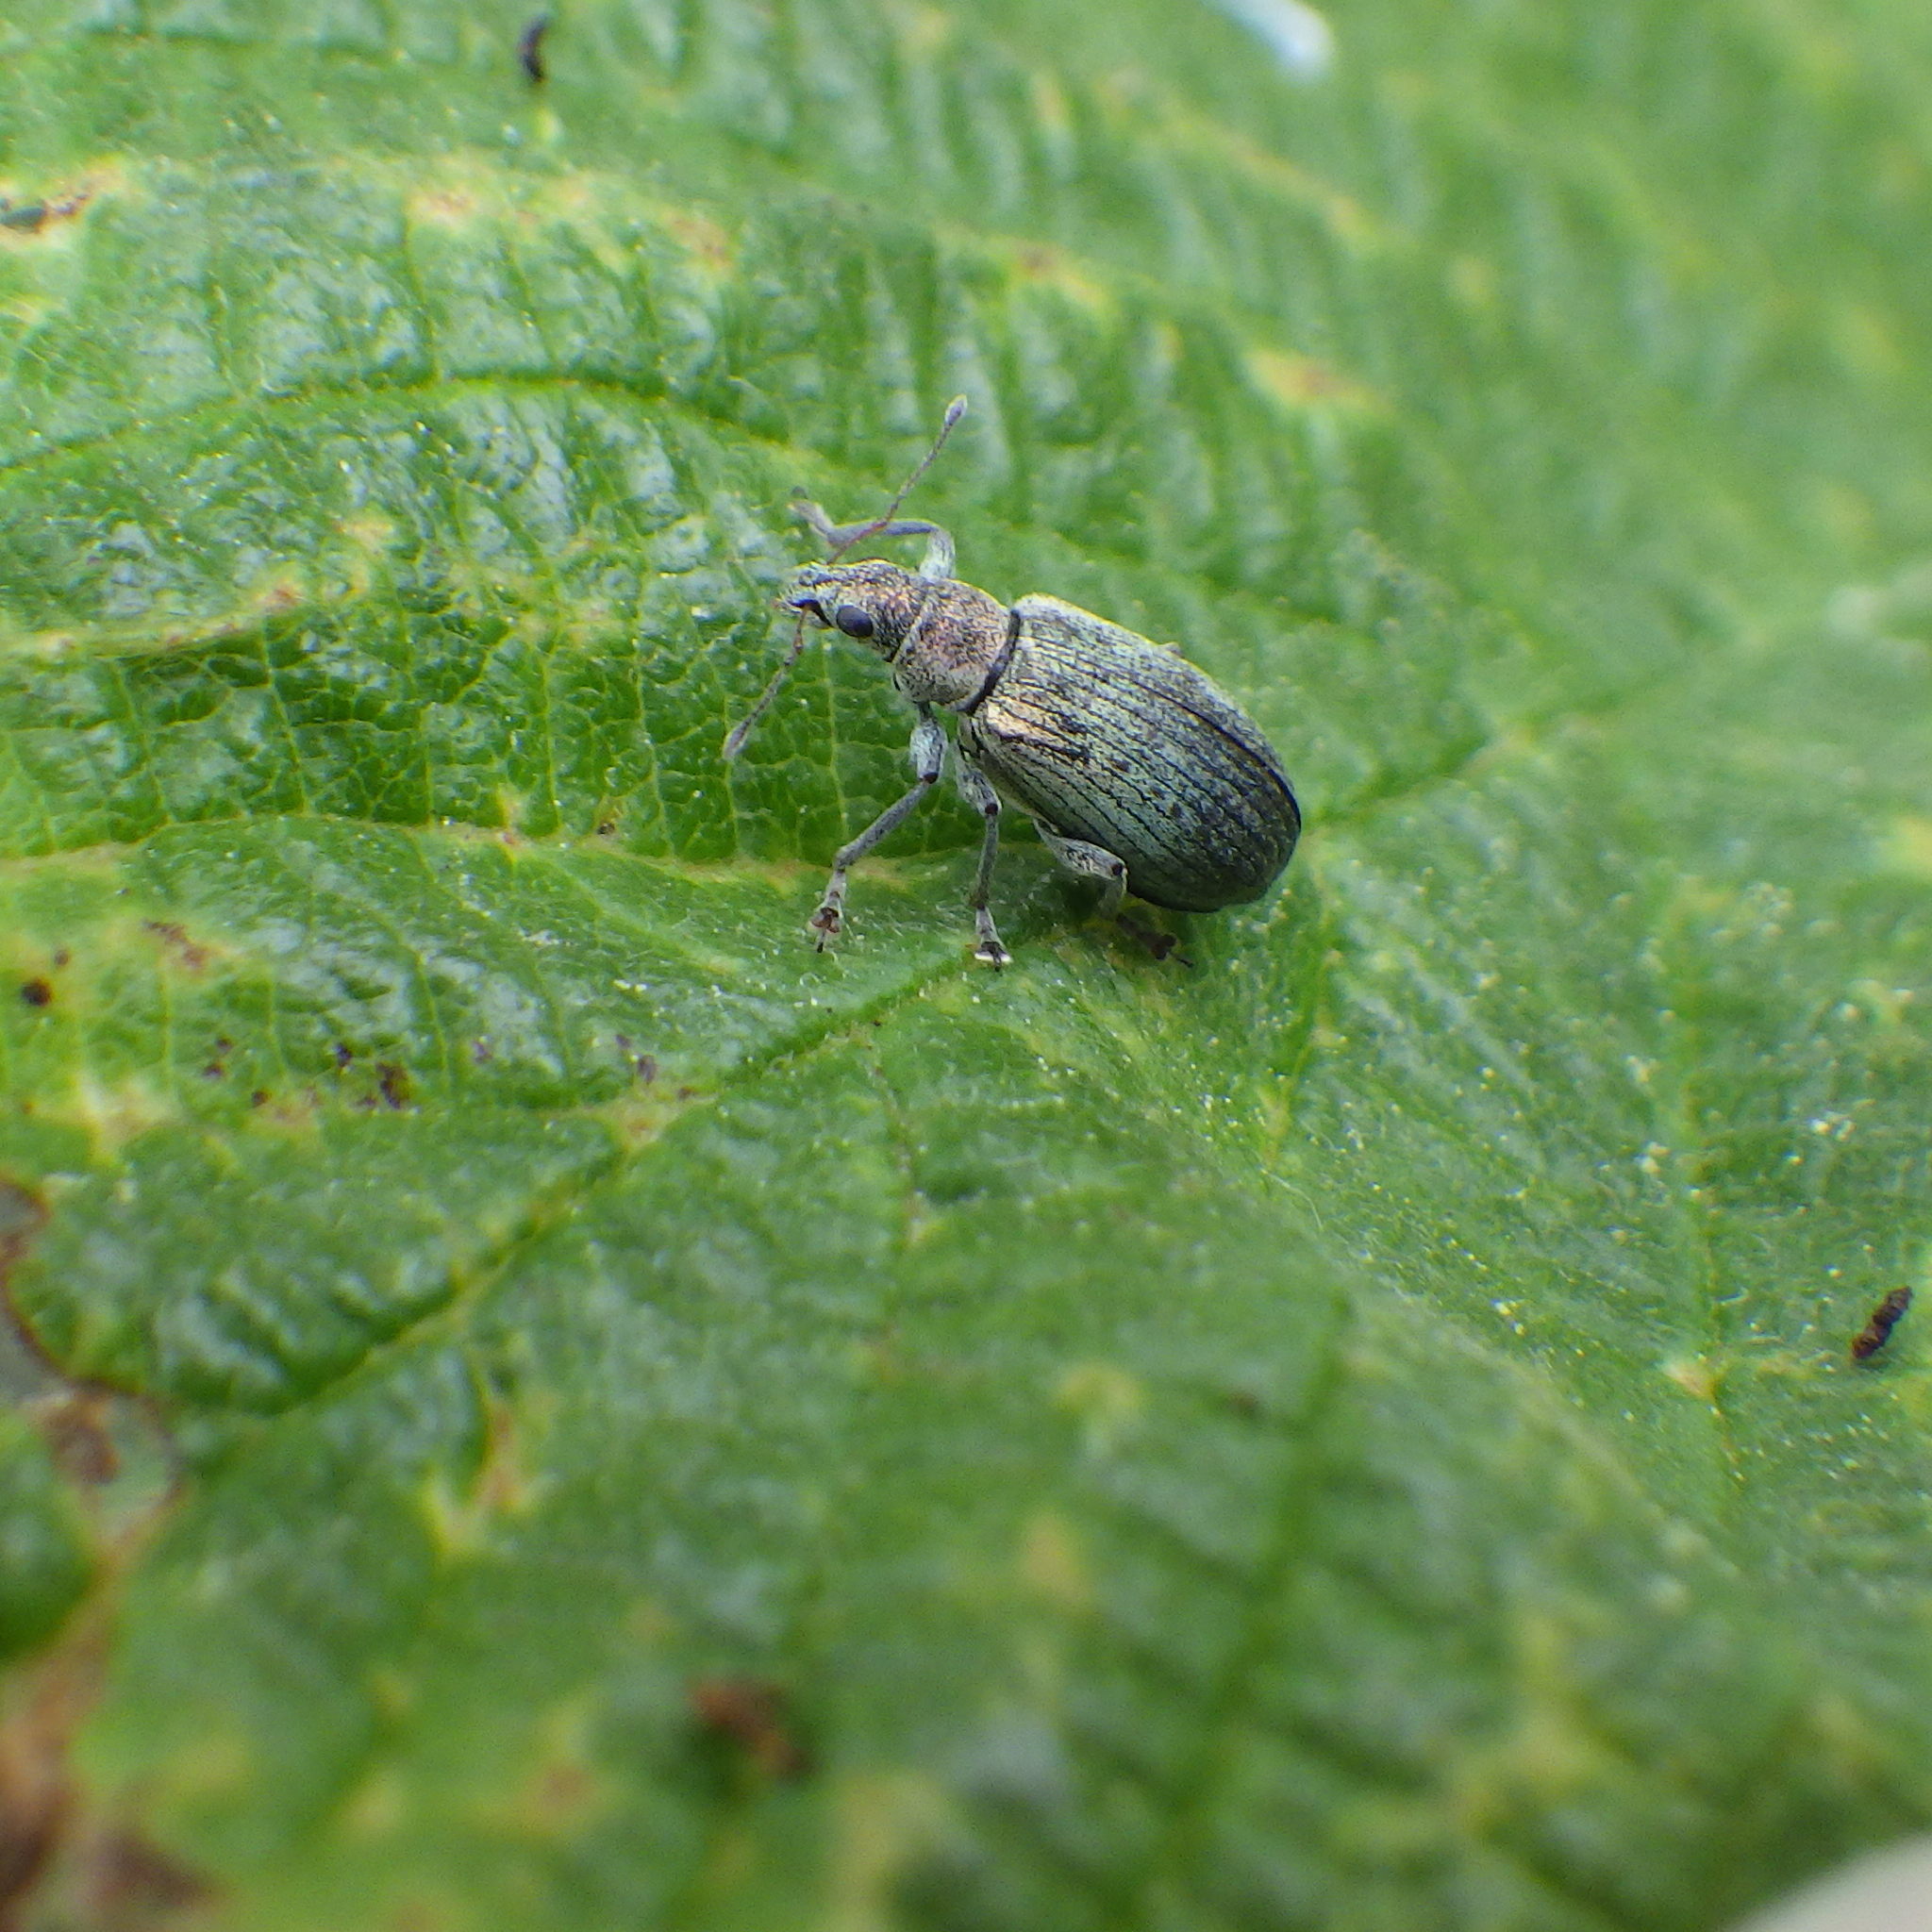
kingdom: Animalia
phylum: Arthropoda
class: Insecta
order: Coleoptera
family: Curculionidae
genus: Polydrusus
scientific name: Polydrusus cervinus
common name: Weevil
